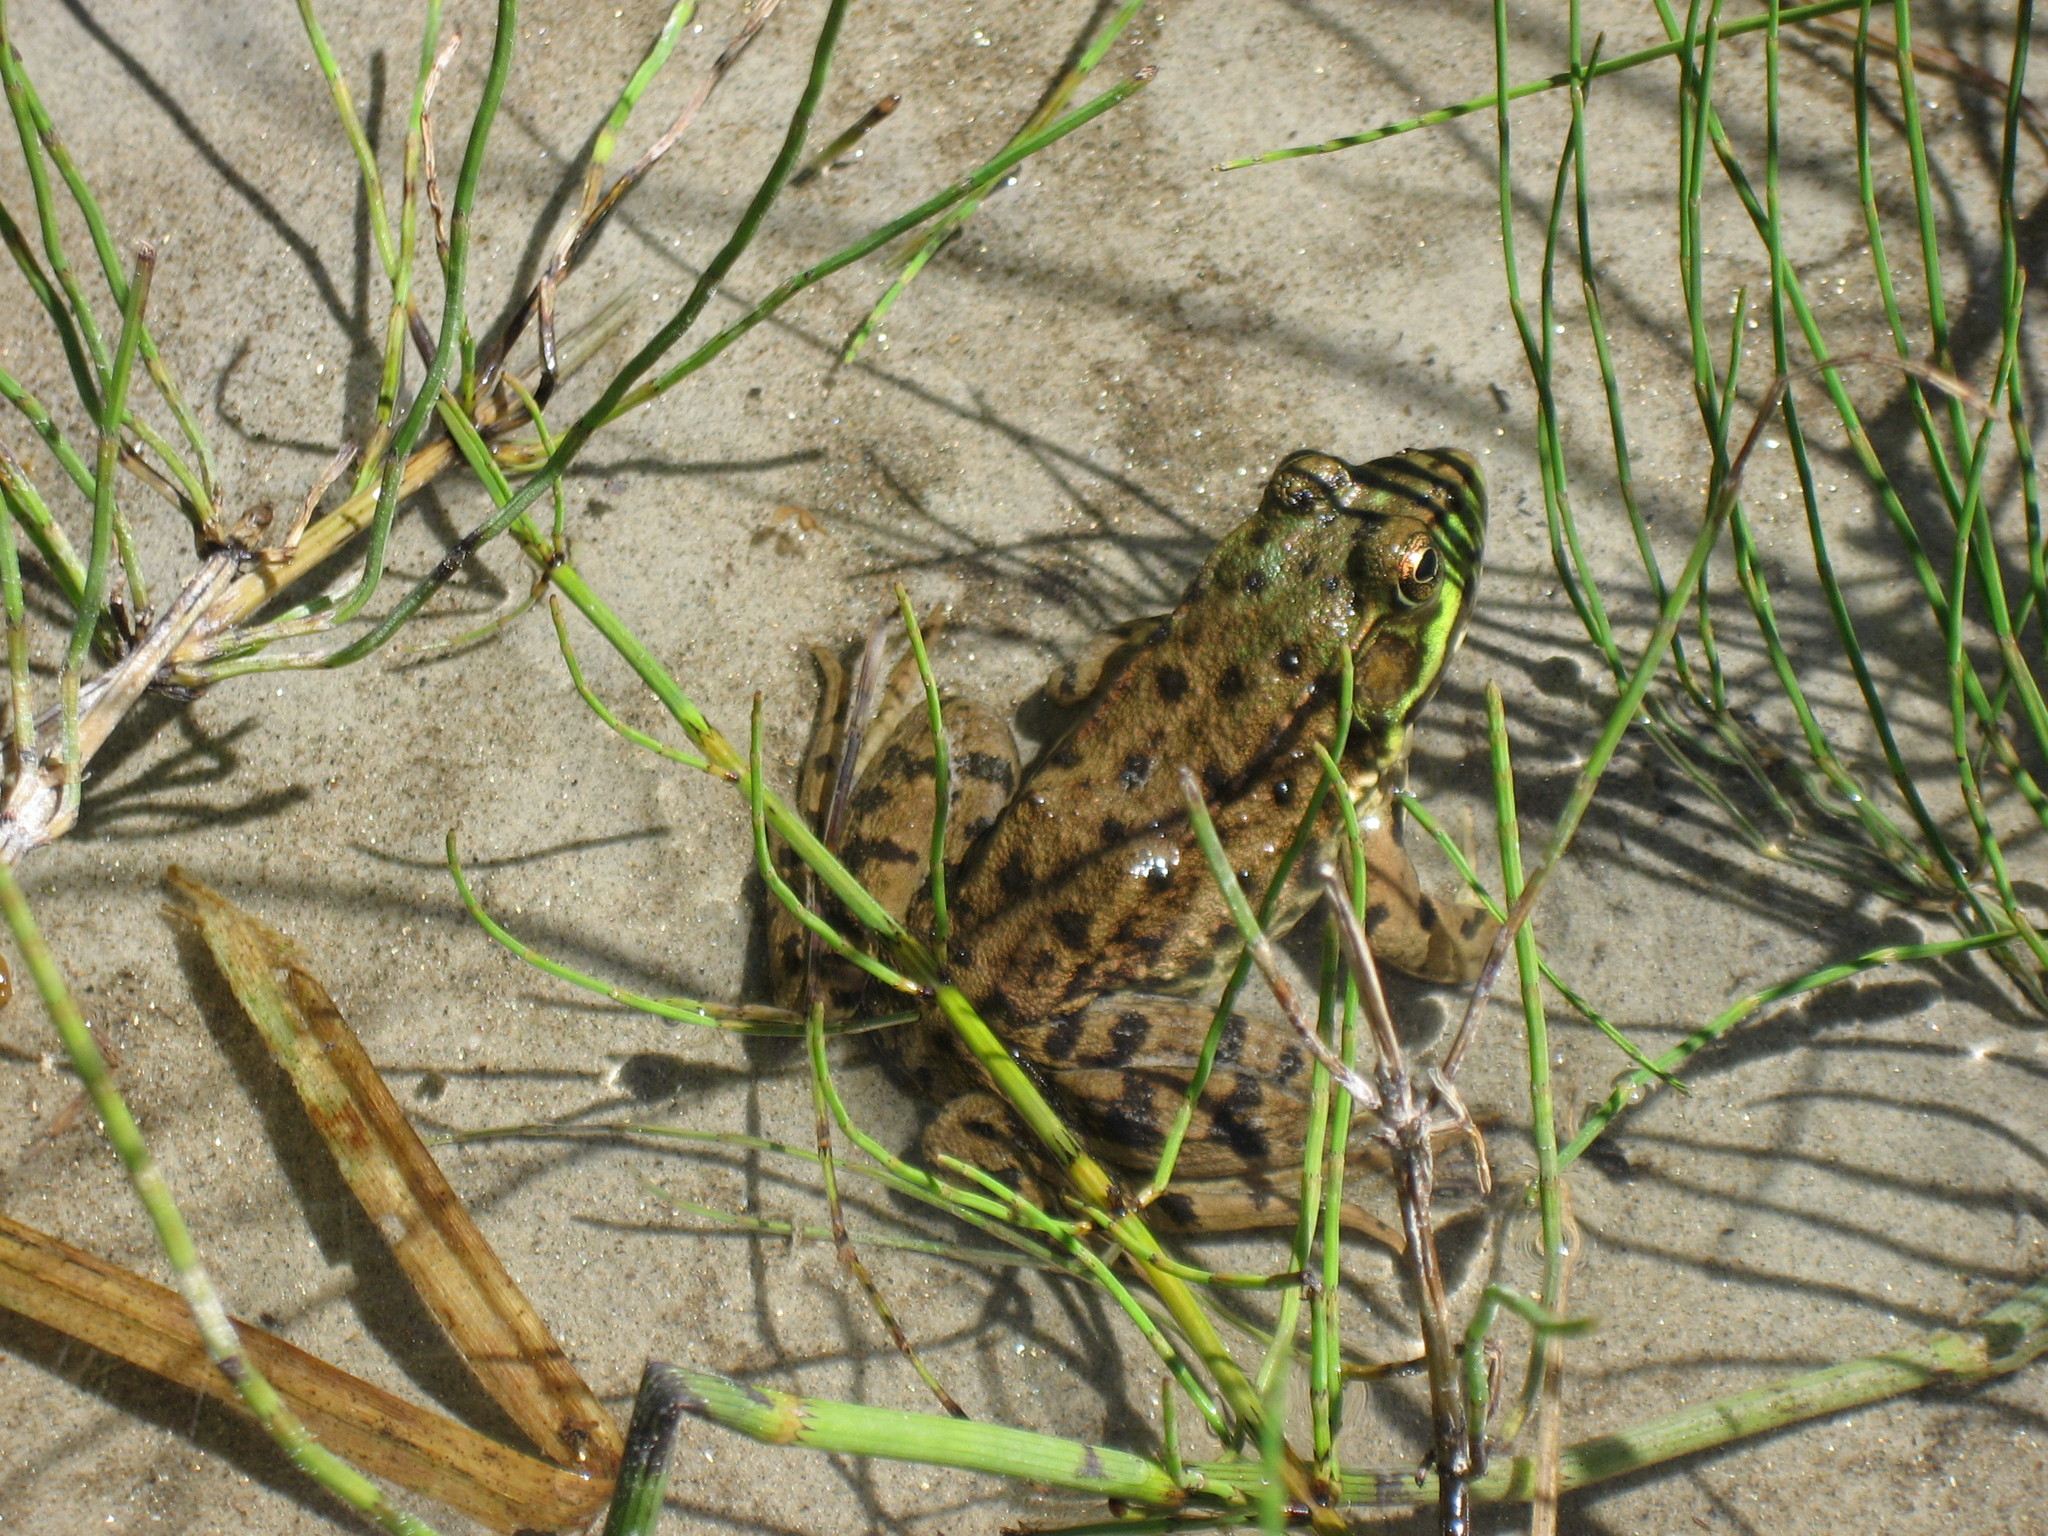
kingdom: Animalia
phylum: Chordata
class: Amphibia
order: Anura
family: Ranidae
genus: Lithobates
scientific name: Lithobates clamitans
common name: Green frog
